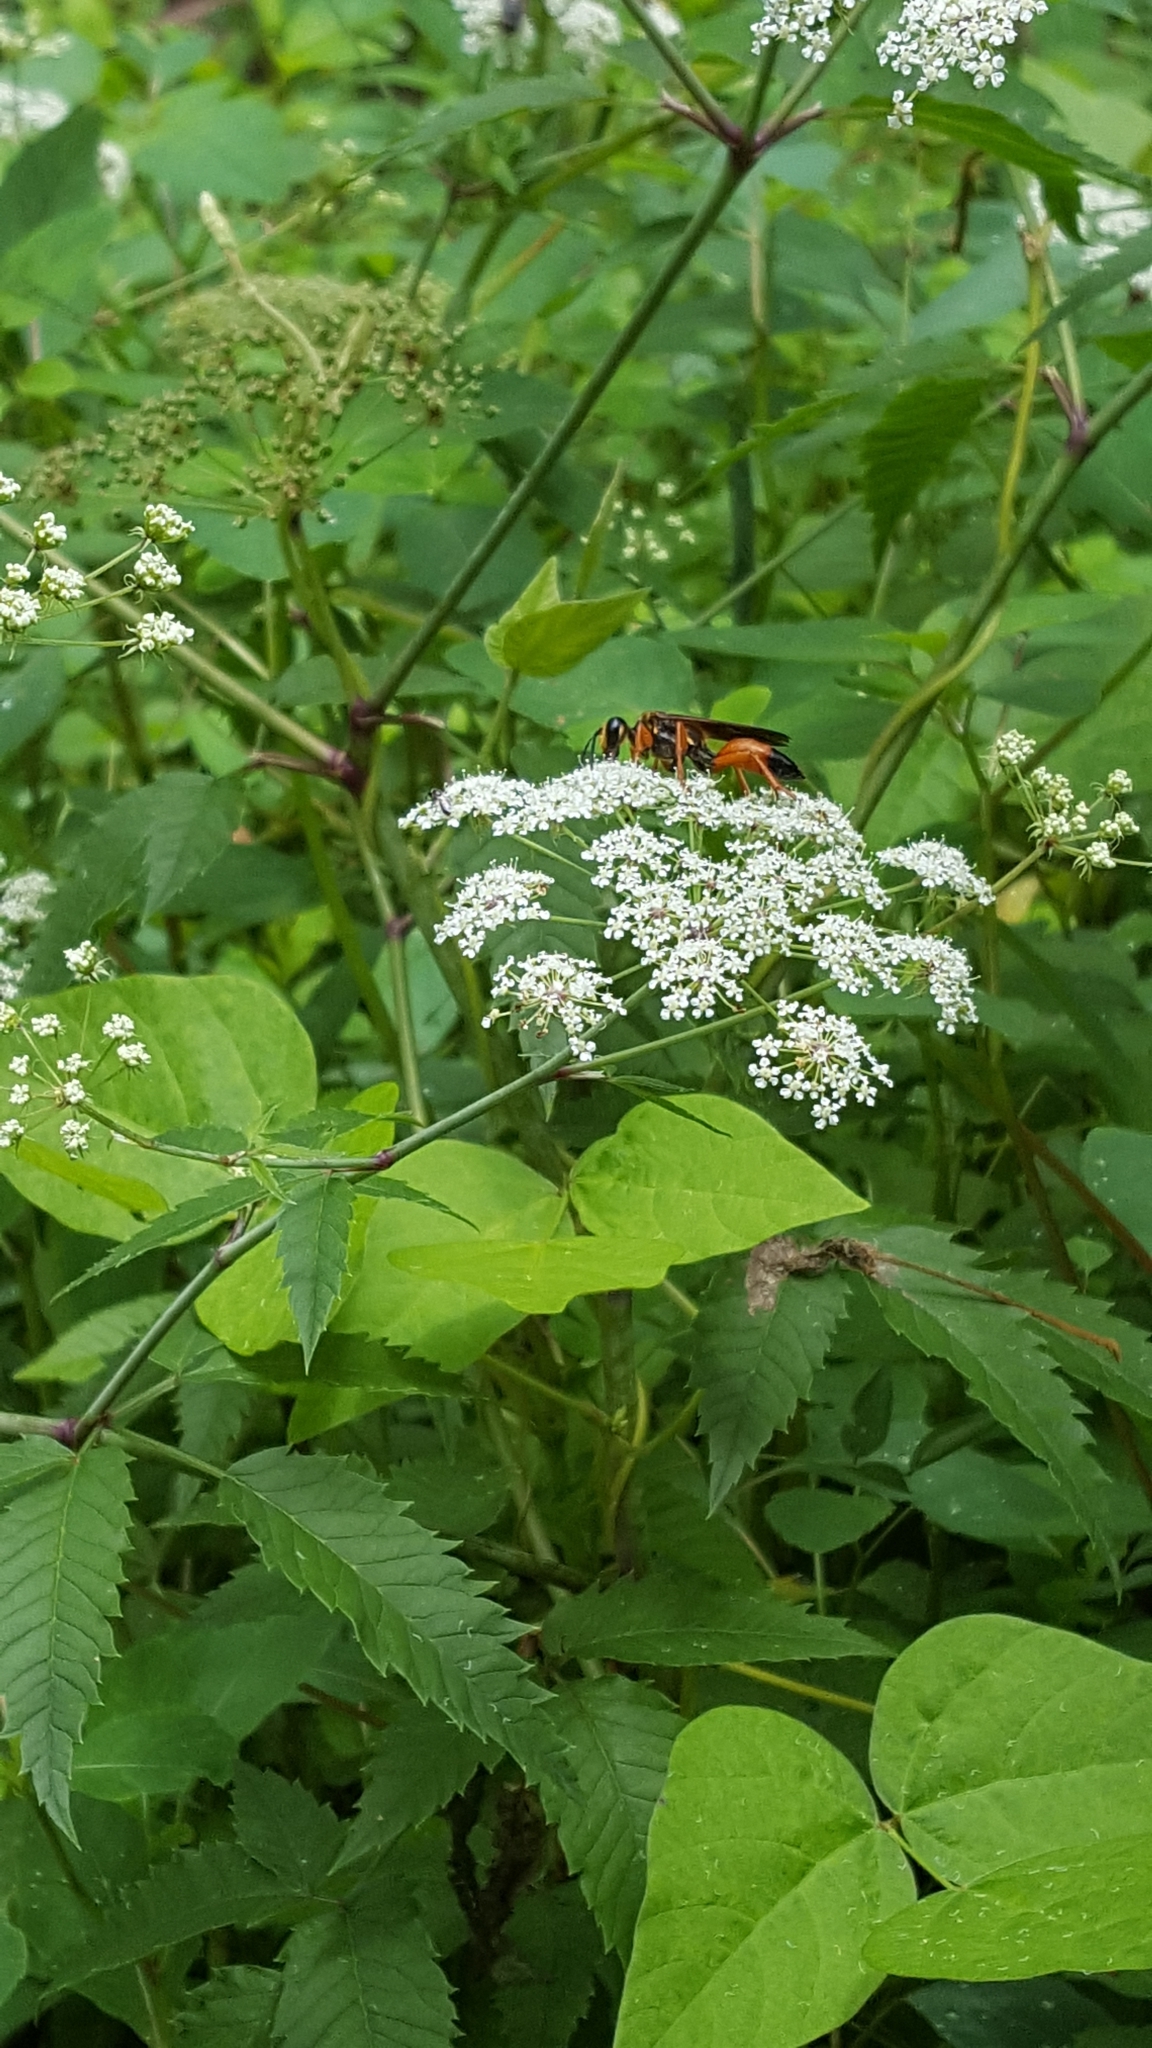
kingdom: Animalia
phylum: Arthropoda
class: Insecta
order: Hymenoptera
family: Sphecidae
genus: Sphex
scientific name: Sphex ichneumoneus
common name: Great golden digger wasp
